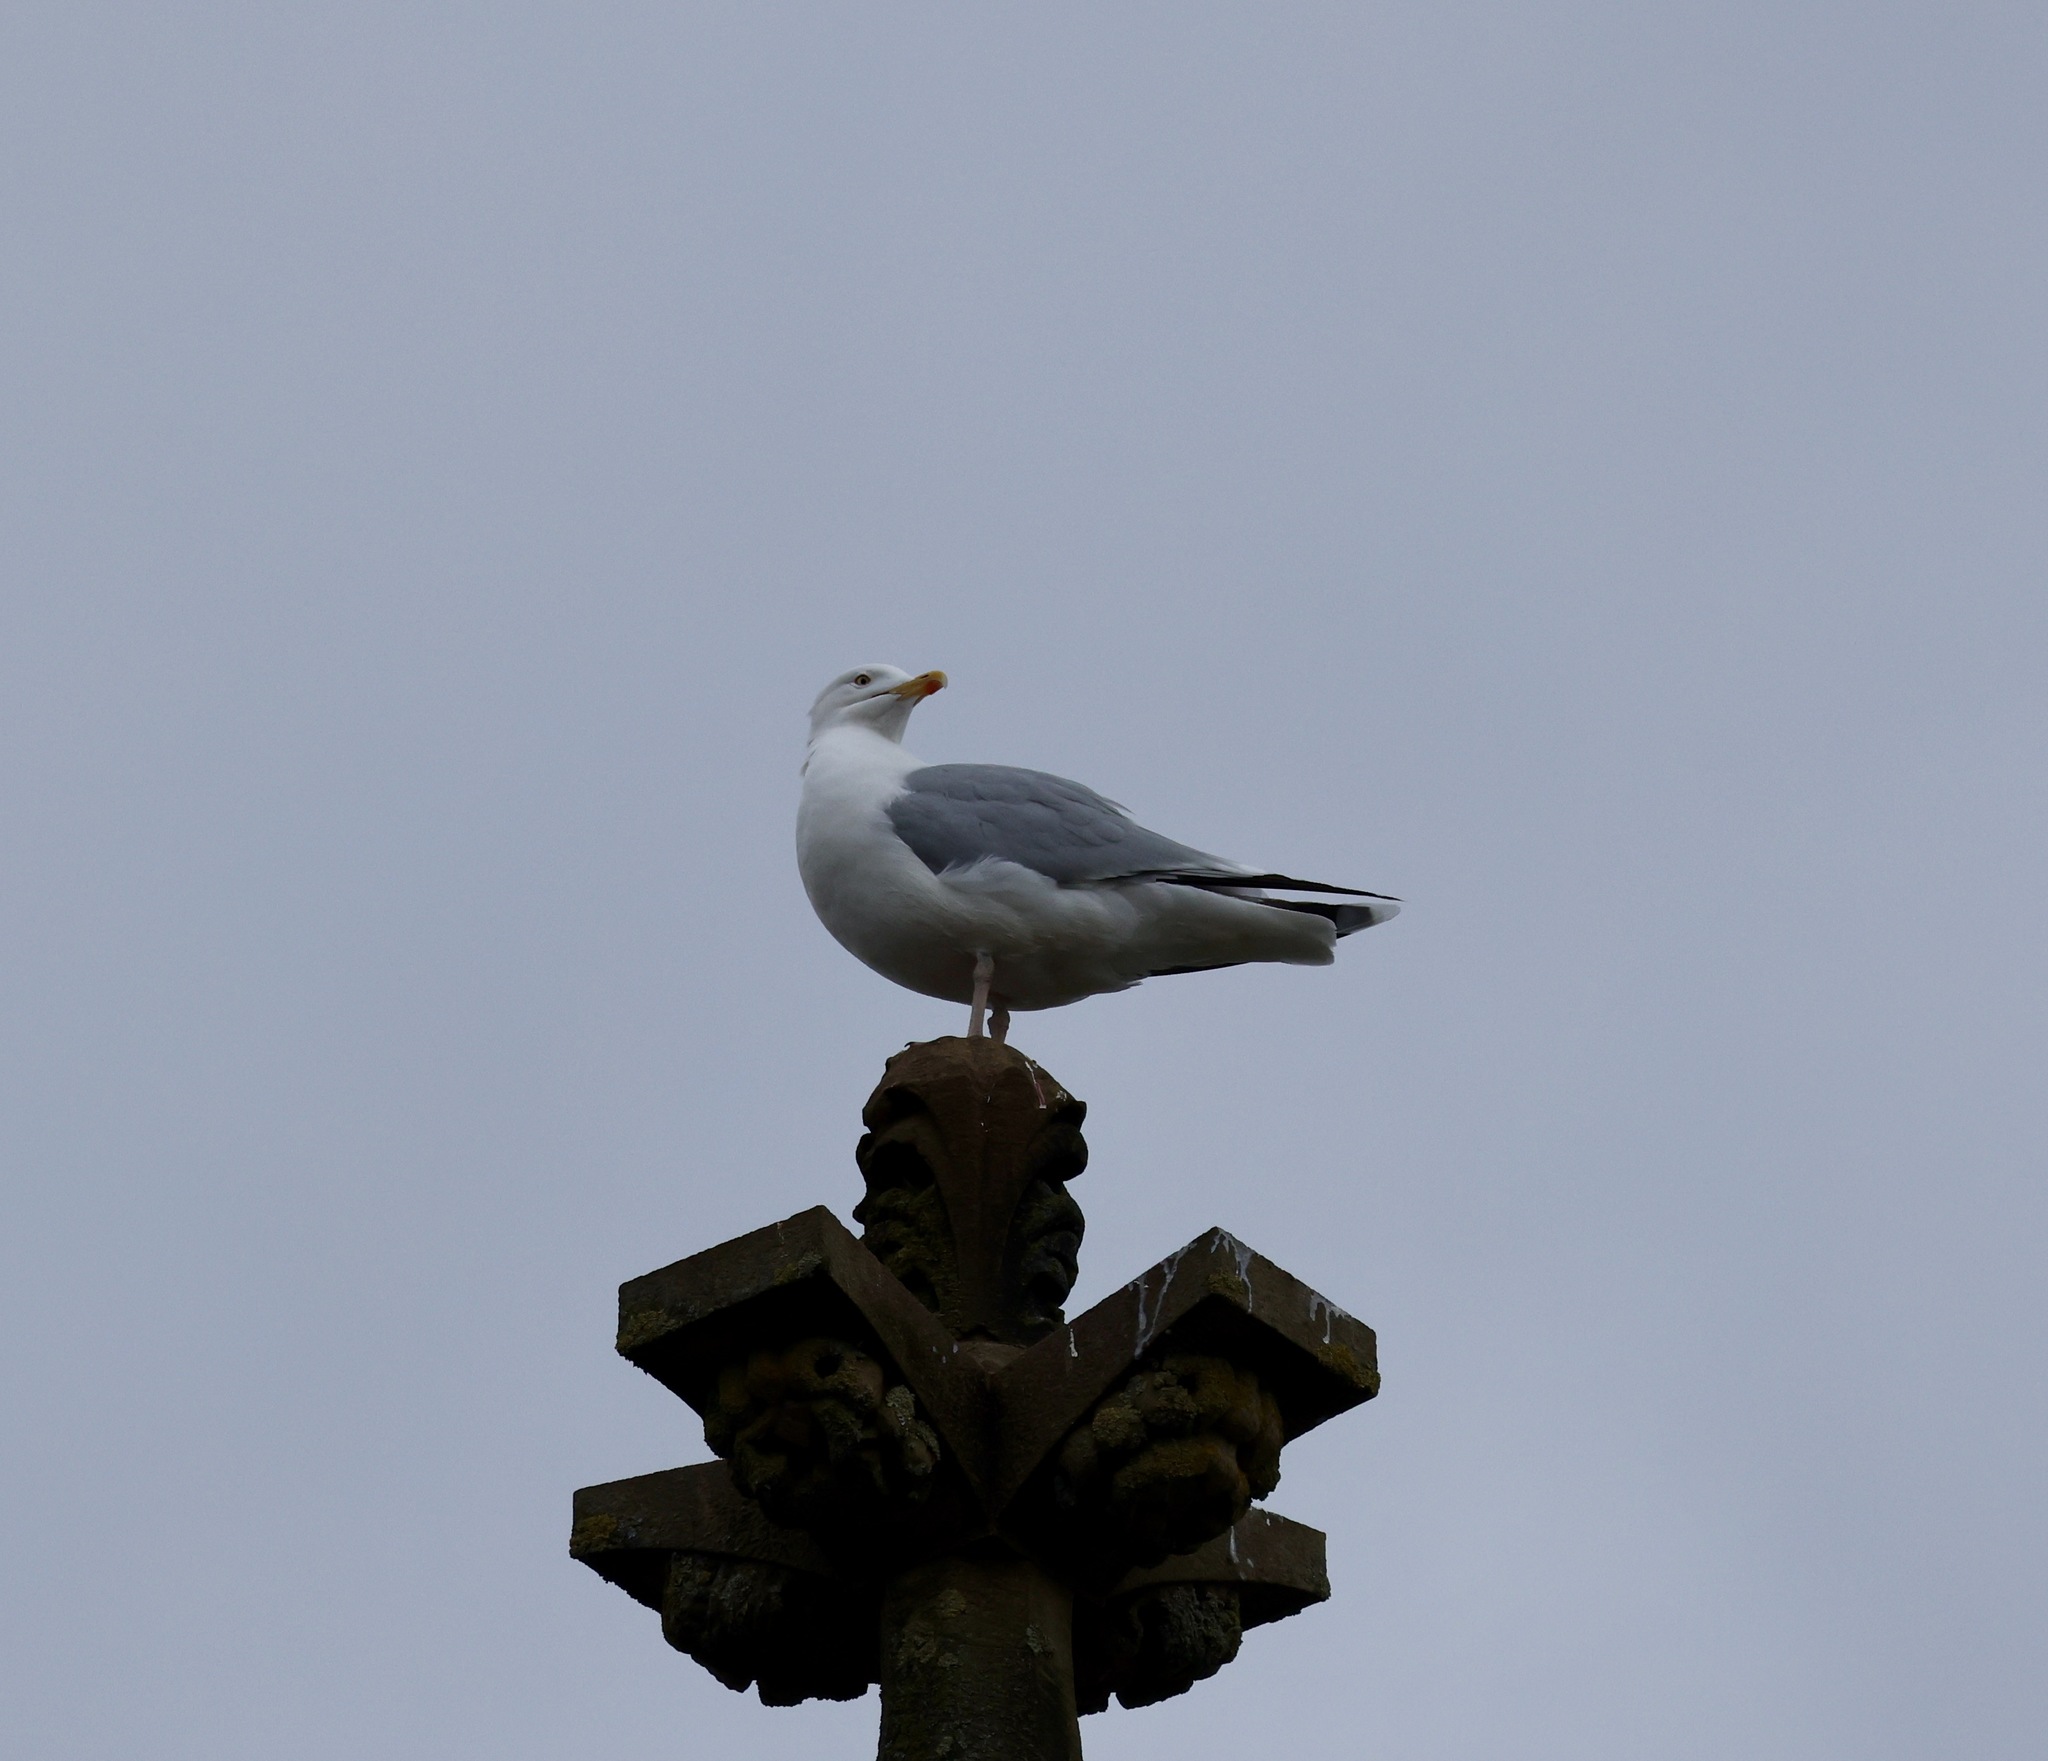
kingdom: Animalia
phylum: Chordata
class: Aves
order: Charadriiformes
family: Laridae
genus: Larus
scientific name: Larus argentatus
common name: Herring gull
